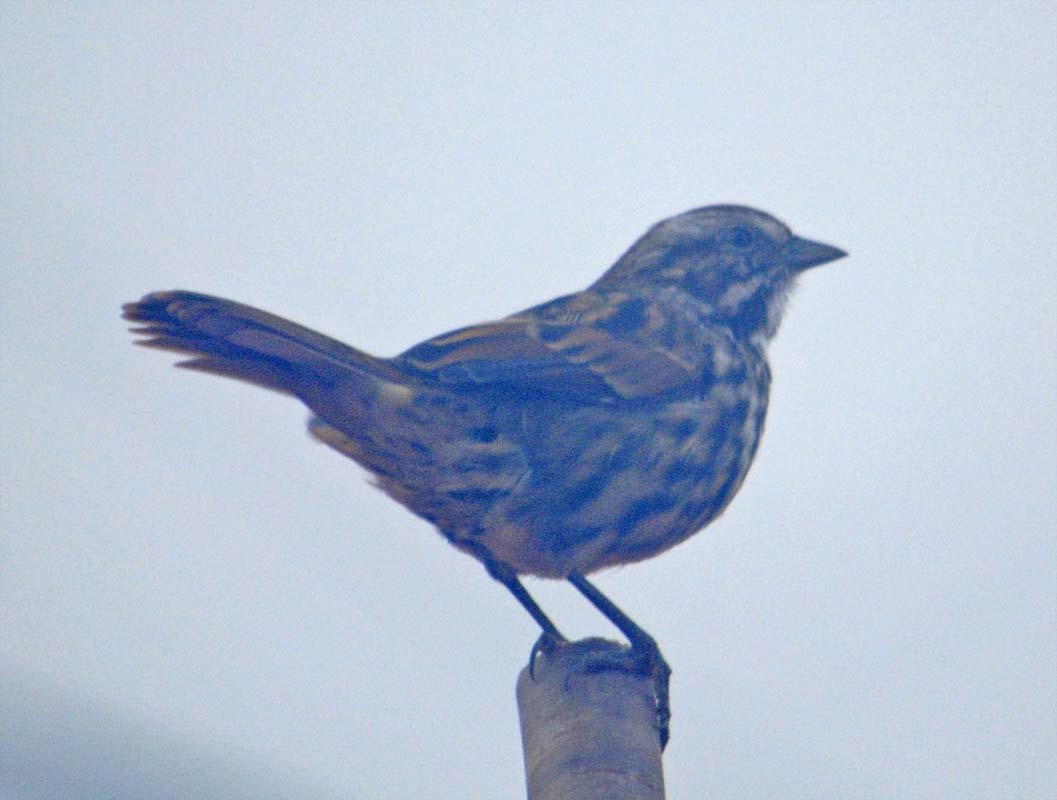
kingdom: Animalia
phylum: Chordata
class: Aves
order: Passeriformes
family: Passerellidae
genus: Melospiza
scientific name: Melospiza melodia
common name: Song sparrow
